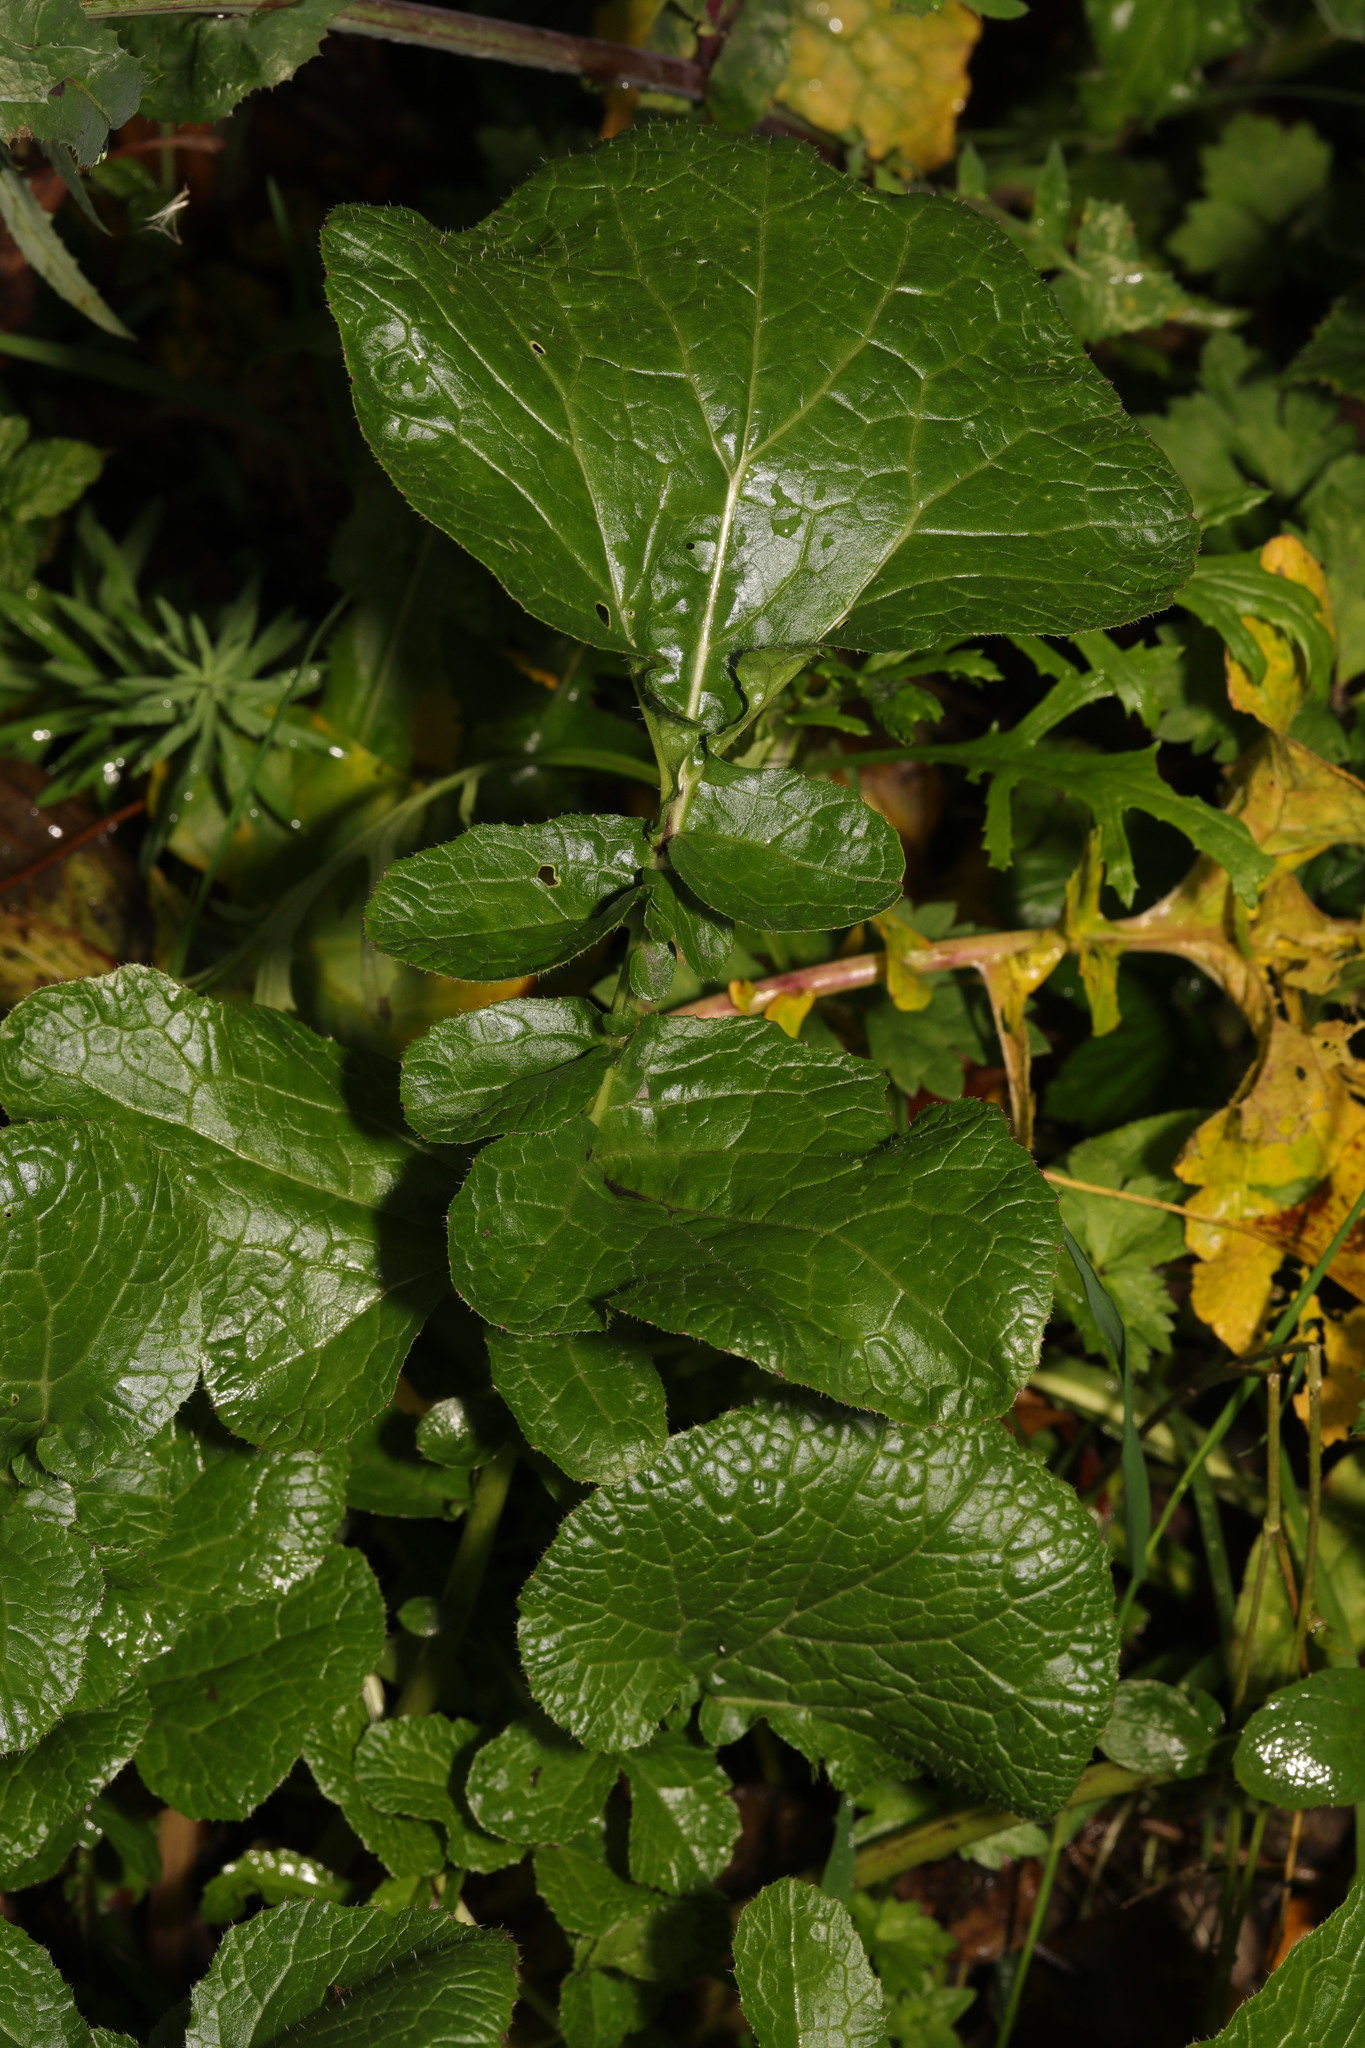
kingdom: Plantae
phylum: Tracheophyta
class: Magnoliopsida
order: Brassicales
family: Brassicaceae
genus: Raphanus
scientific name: Raphanus raphanistrum
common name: Wild radish
